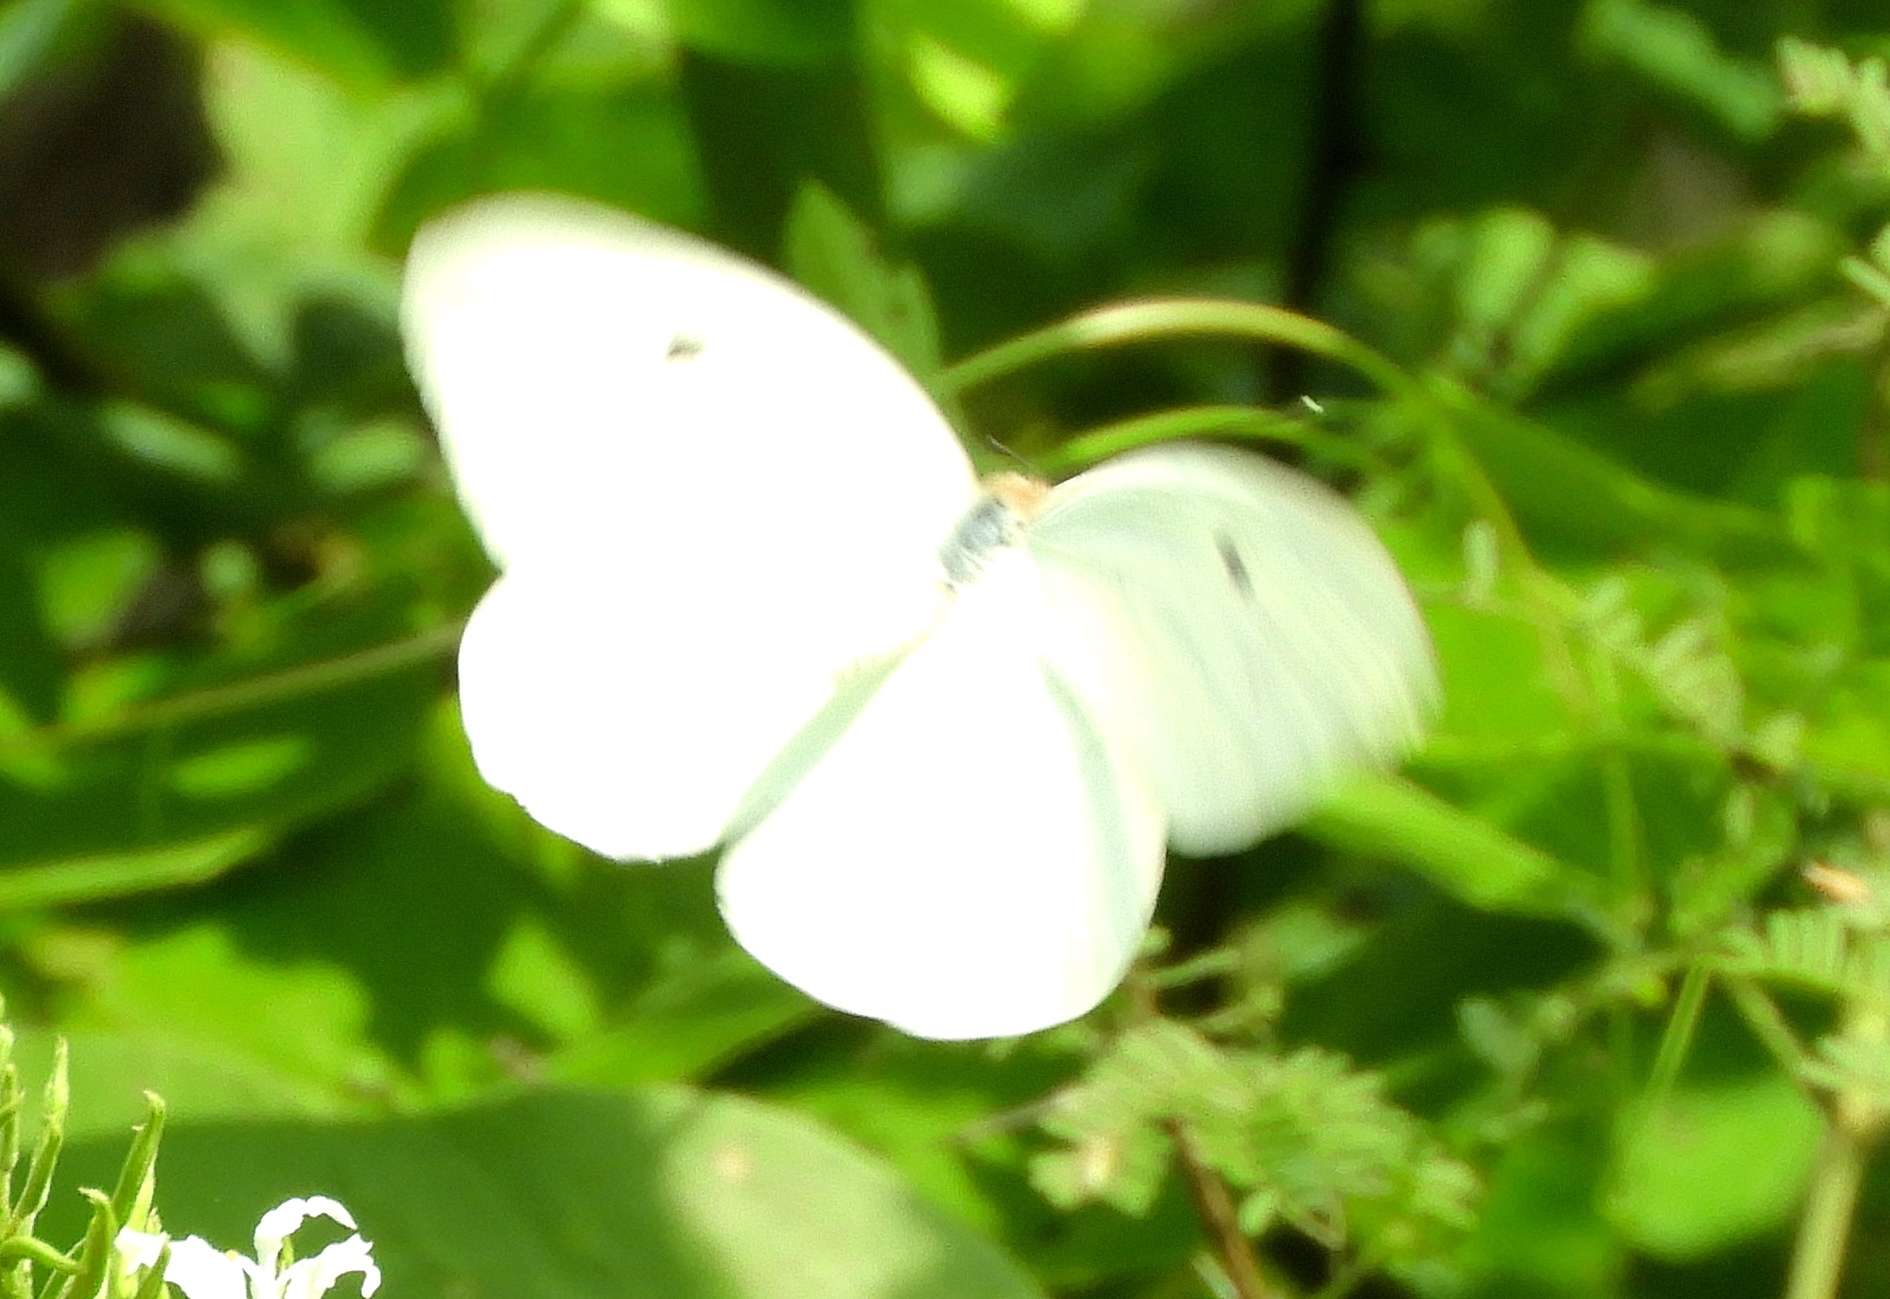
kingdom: Animalia
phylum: Arthropoda
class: Insecta
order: Lepidoptera
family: Pieridae
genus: Ganyra
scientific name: Ganyra josephina
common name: Giant white
